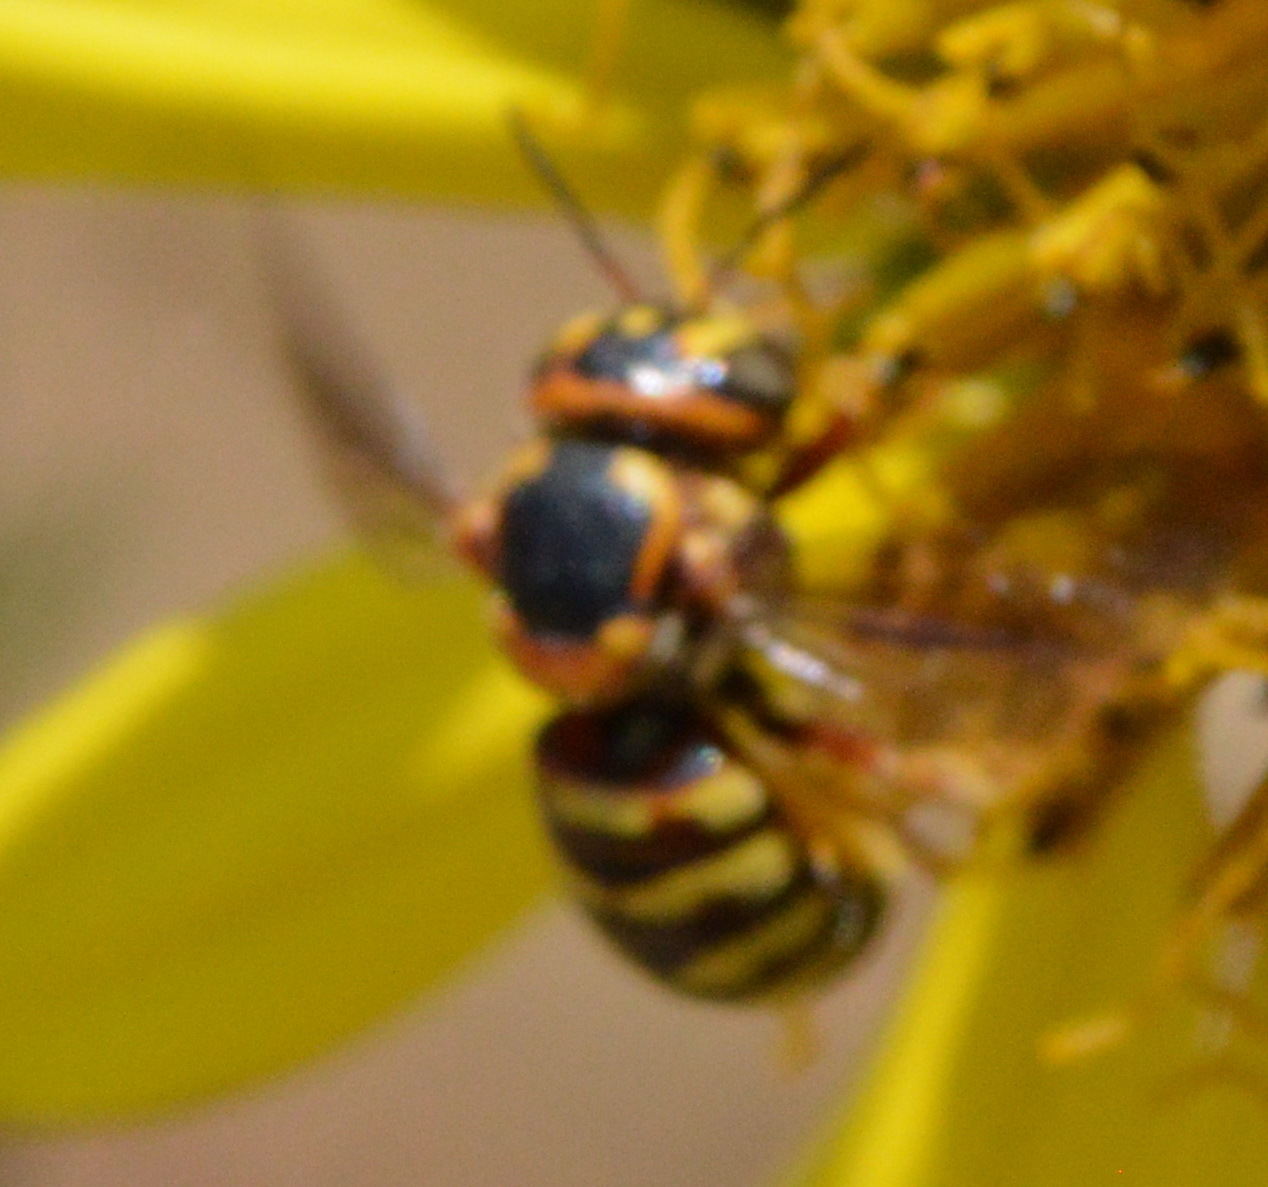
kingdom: Animalia
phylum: Arthropoda
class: Insecta
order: Hymenoptera
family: Megachilidae
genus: Dianthidium
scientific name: Dianthidium curvatum
